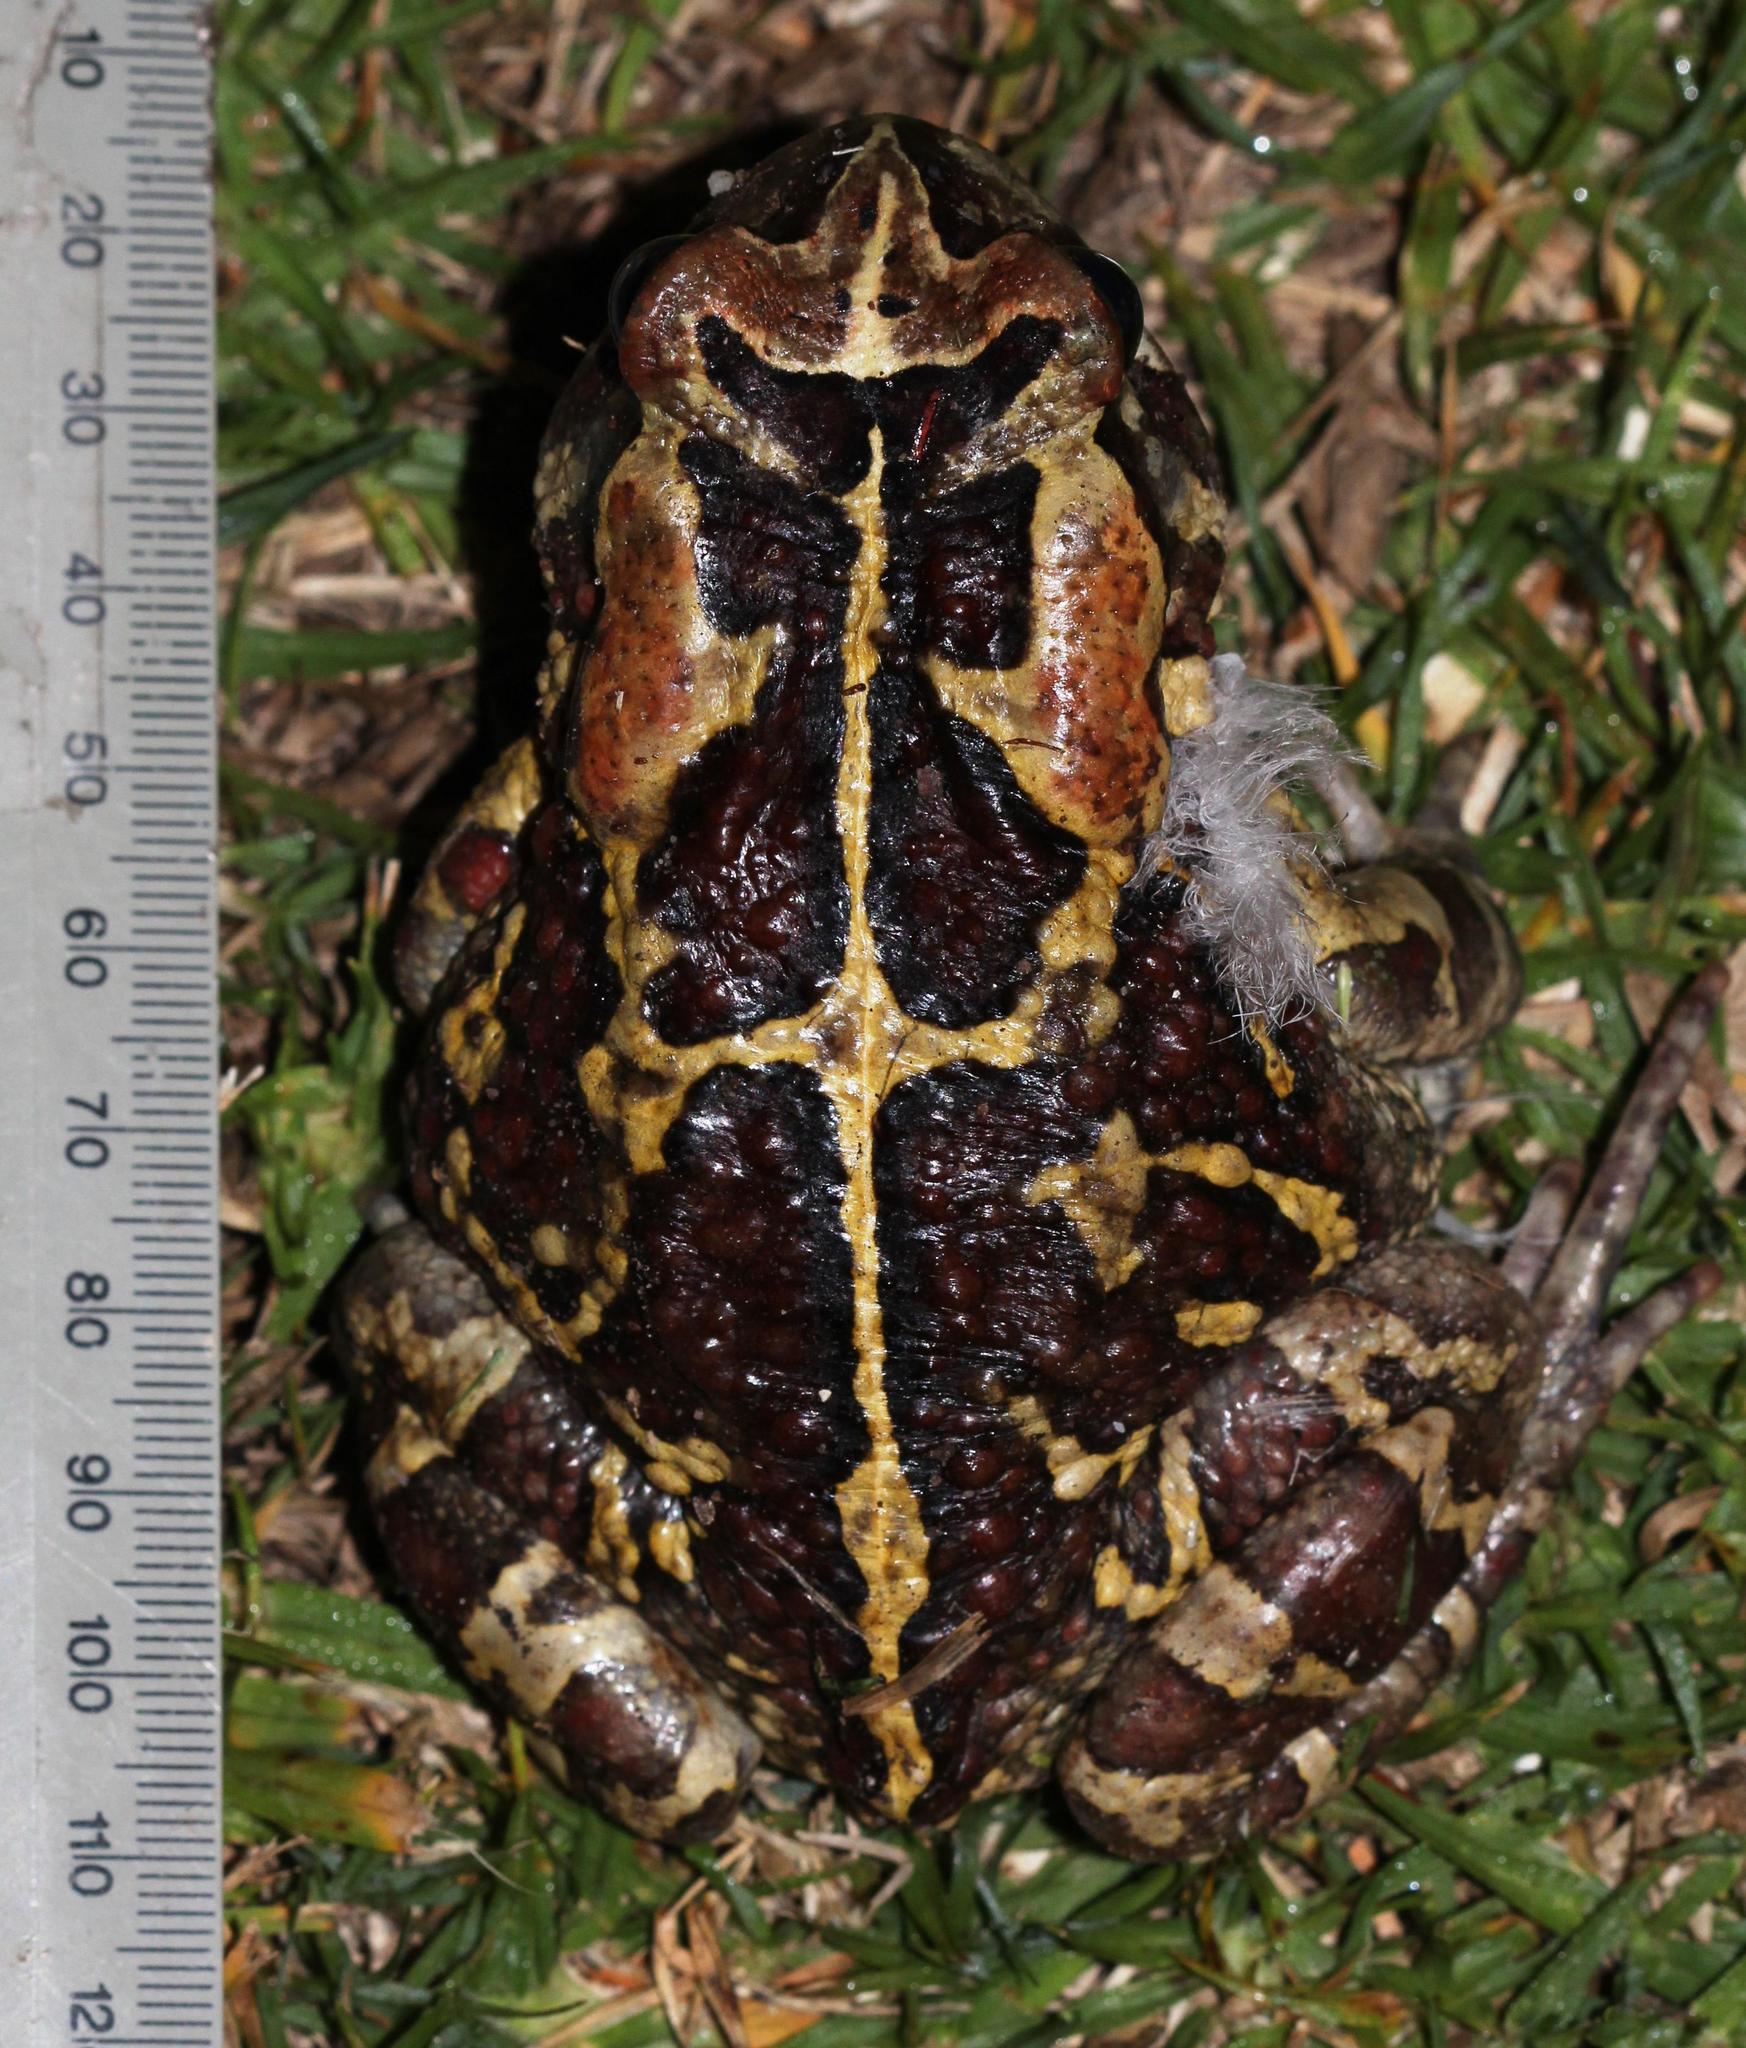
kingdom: Animalia
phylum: Chordata
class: Amphibia
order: Anura
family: Bufonidae
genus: Sclerophrys
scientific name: Sclerophrys pantherina
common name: Panther toad
